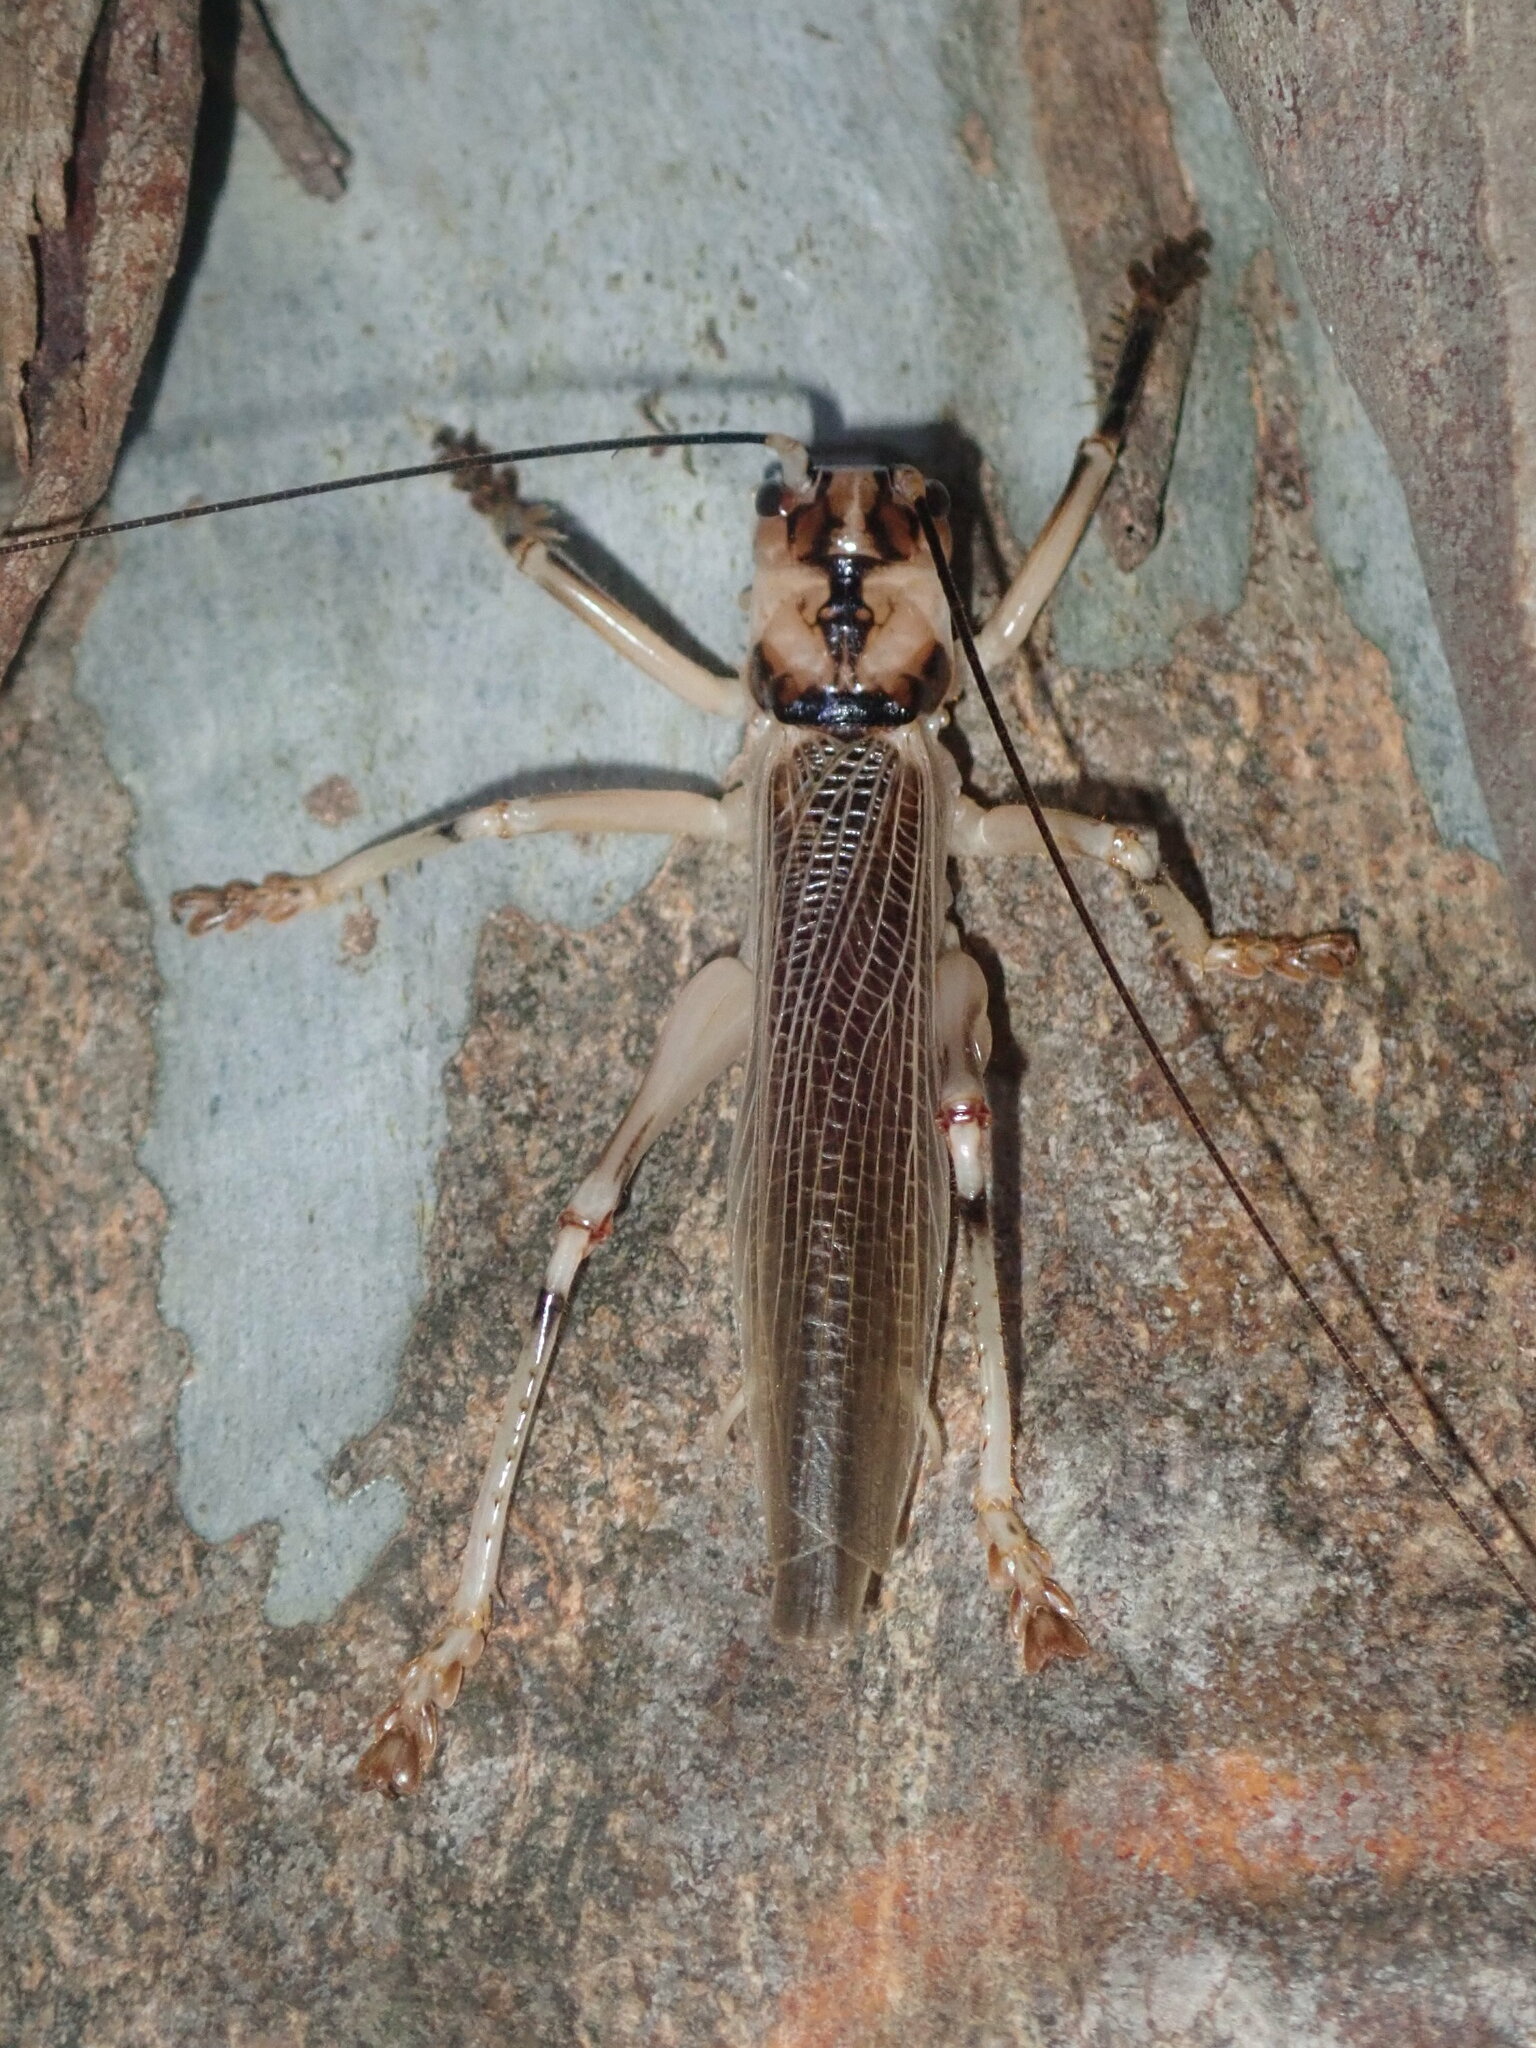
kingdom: Animalia
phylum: Arthropoda
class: Insecta
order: Orthoptera
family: Gryllacrididae
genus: Paragryllacris
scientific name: Paragryllacris combusta
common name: Striped raspy cricket
